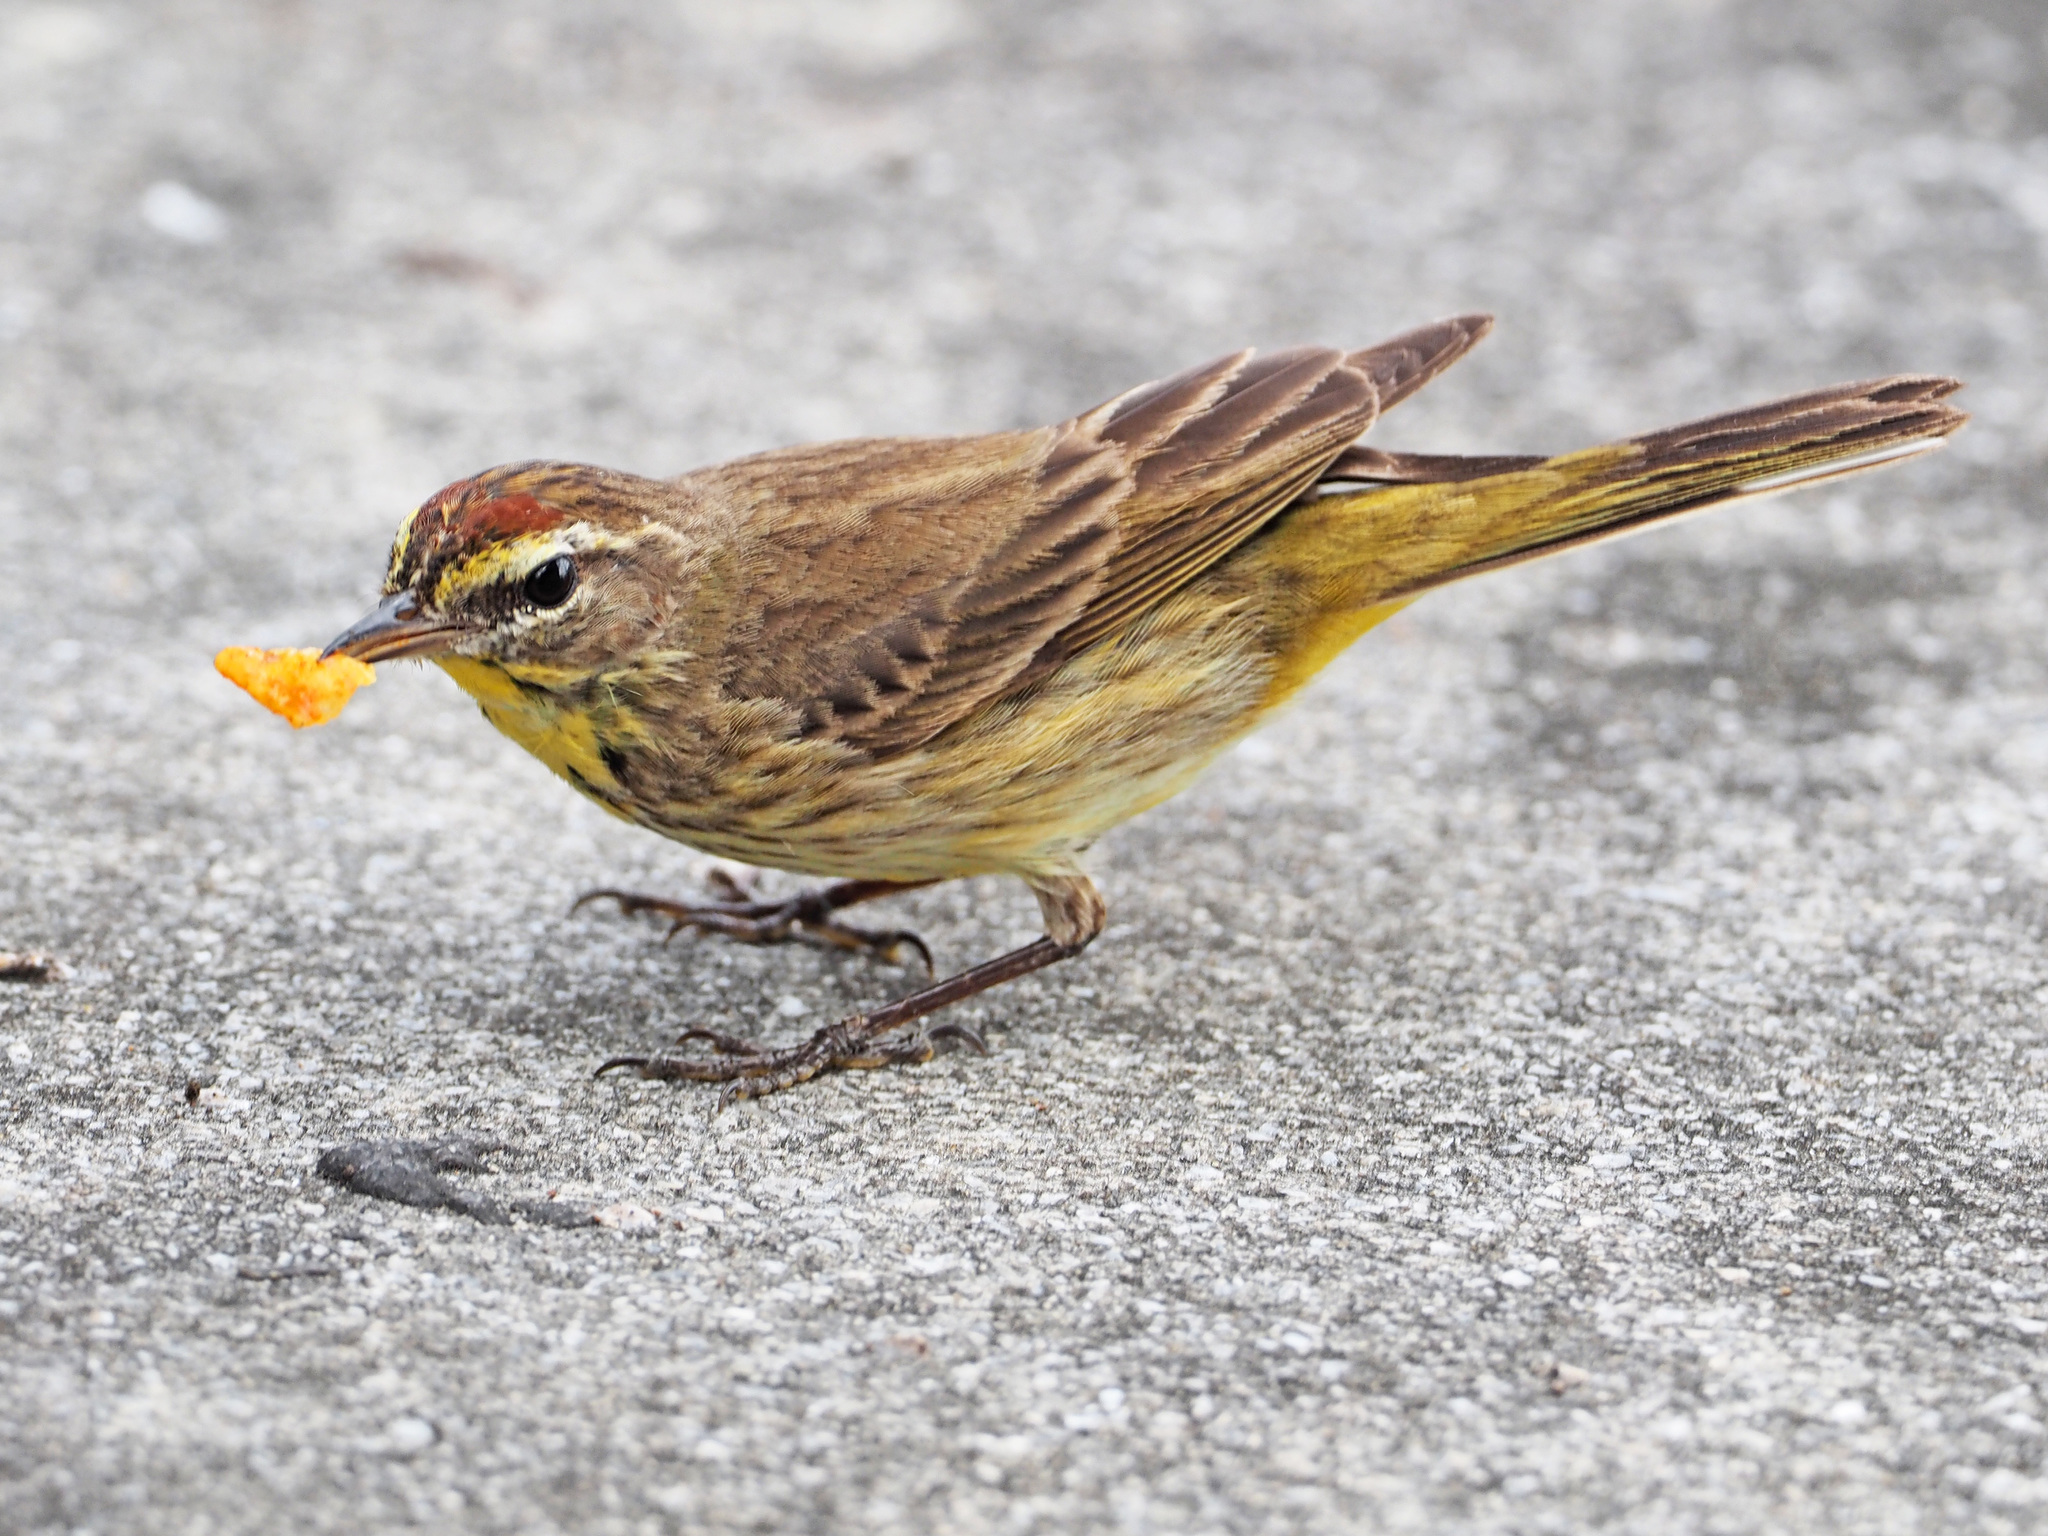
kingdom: Animalia
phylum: Chordata
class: Aves
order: Passeriformes
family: Parulidae
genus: Setophaga
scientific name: Setophaga palmarum
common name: Palm warbler
